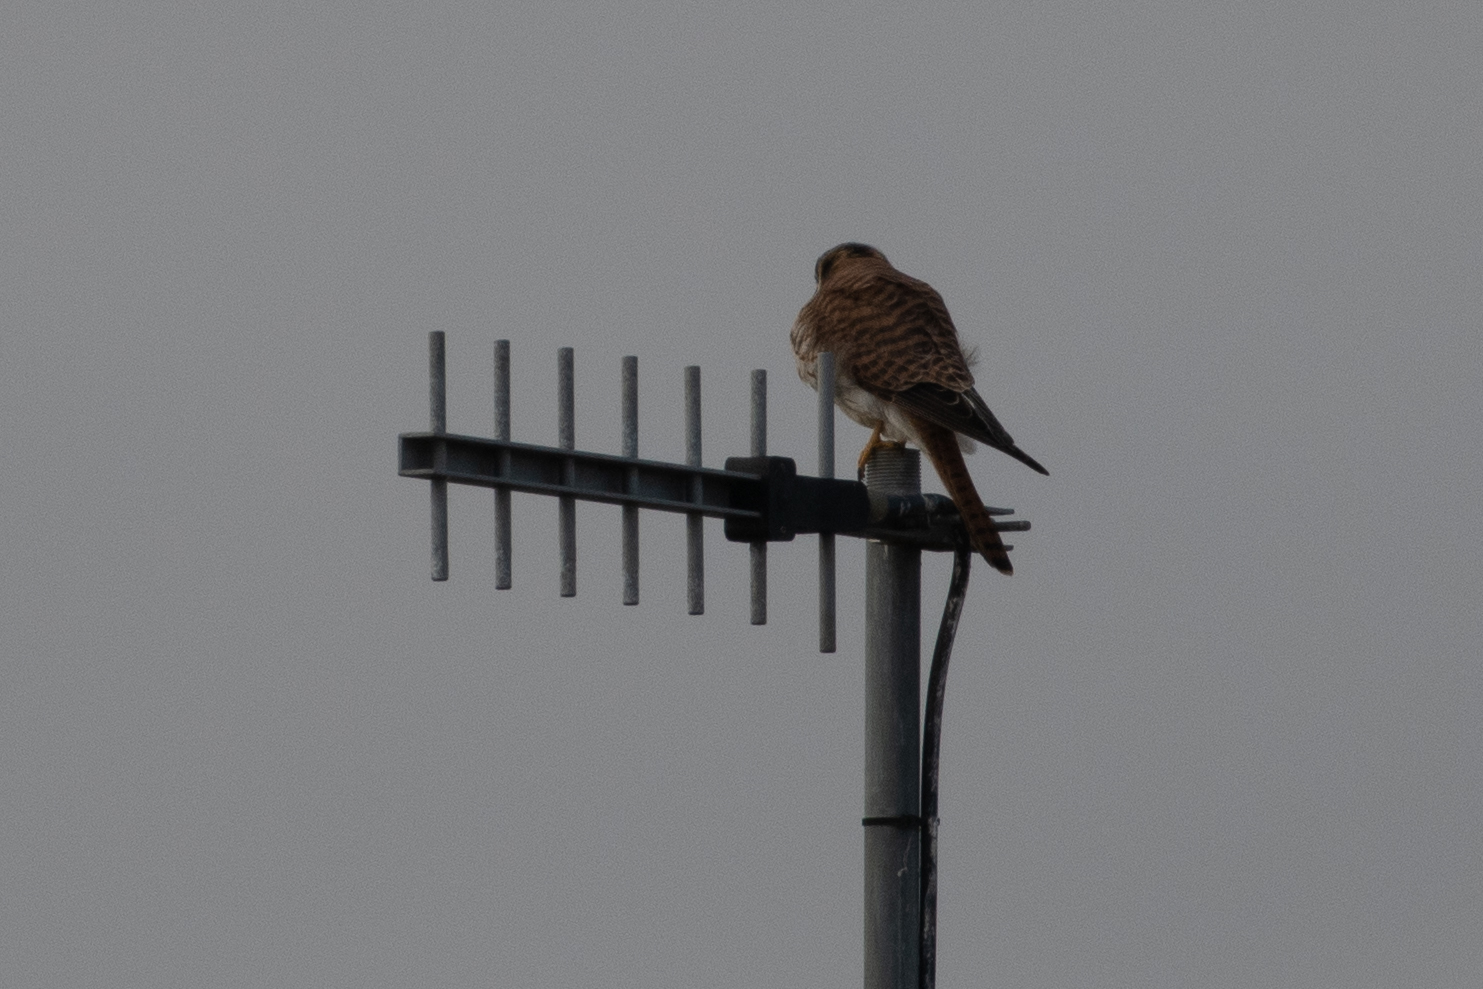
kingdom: Animalia
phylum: Chordata
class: Aves
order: Falconiformes
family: Falconidae
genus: Falco
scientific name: Falco sparverius
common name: American kestrel
